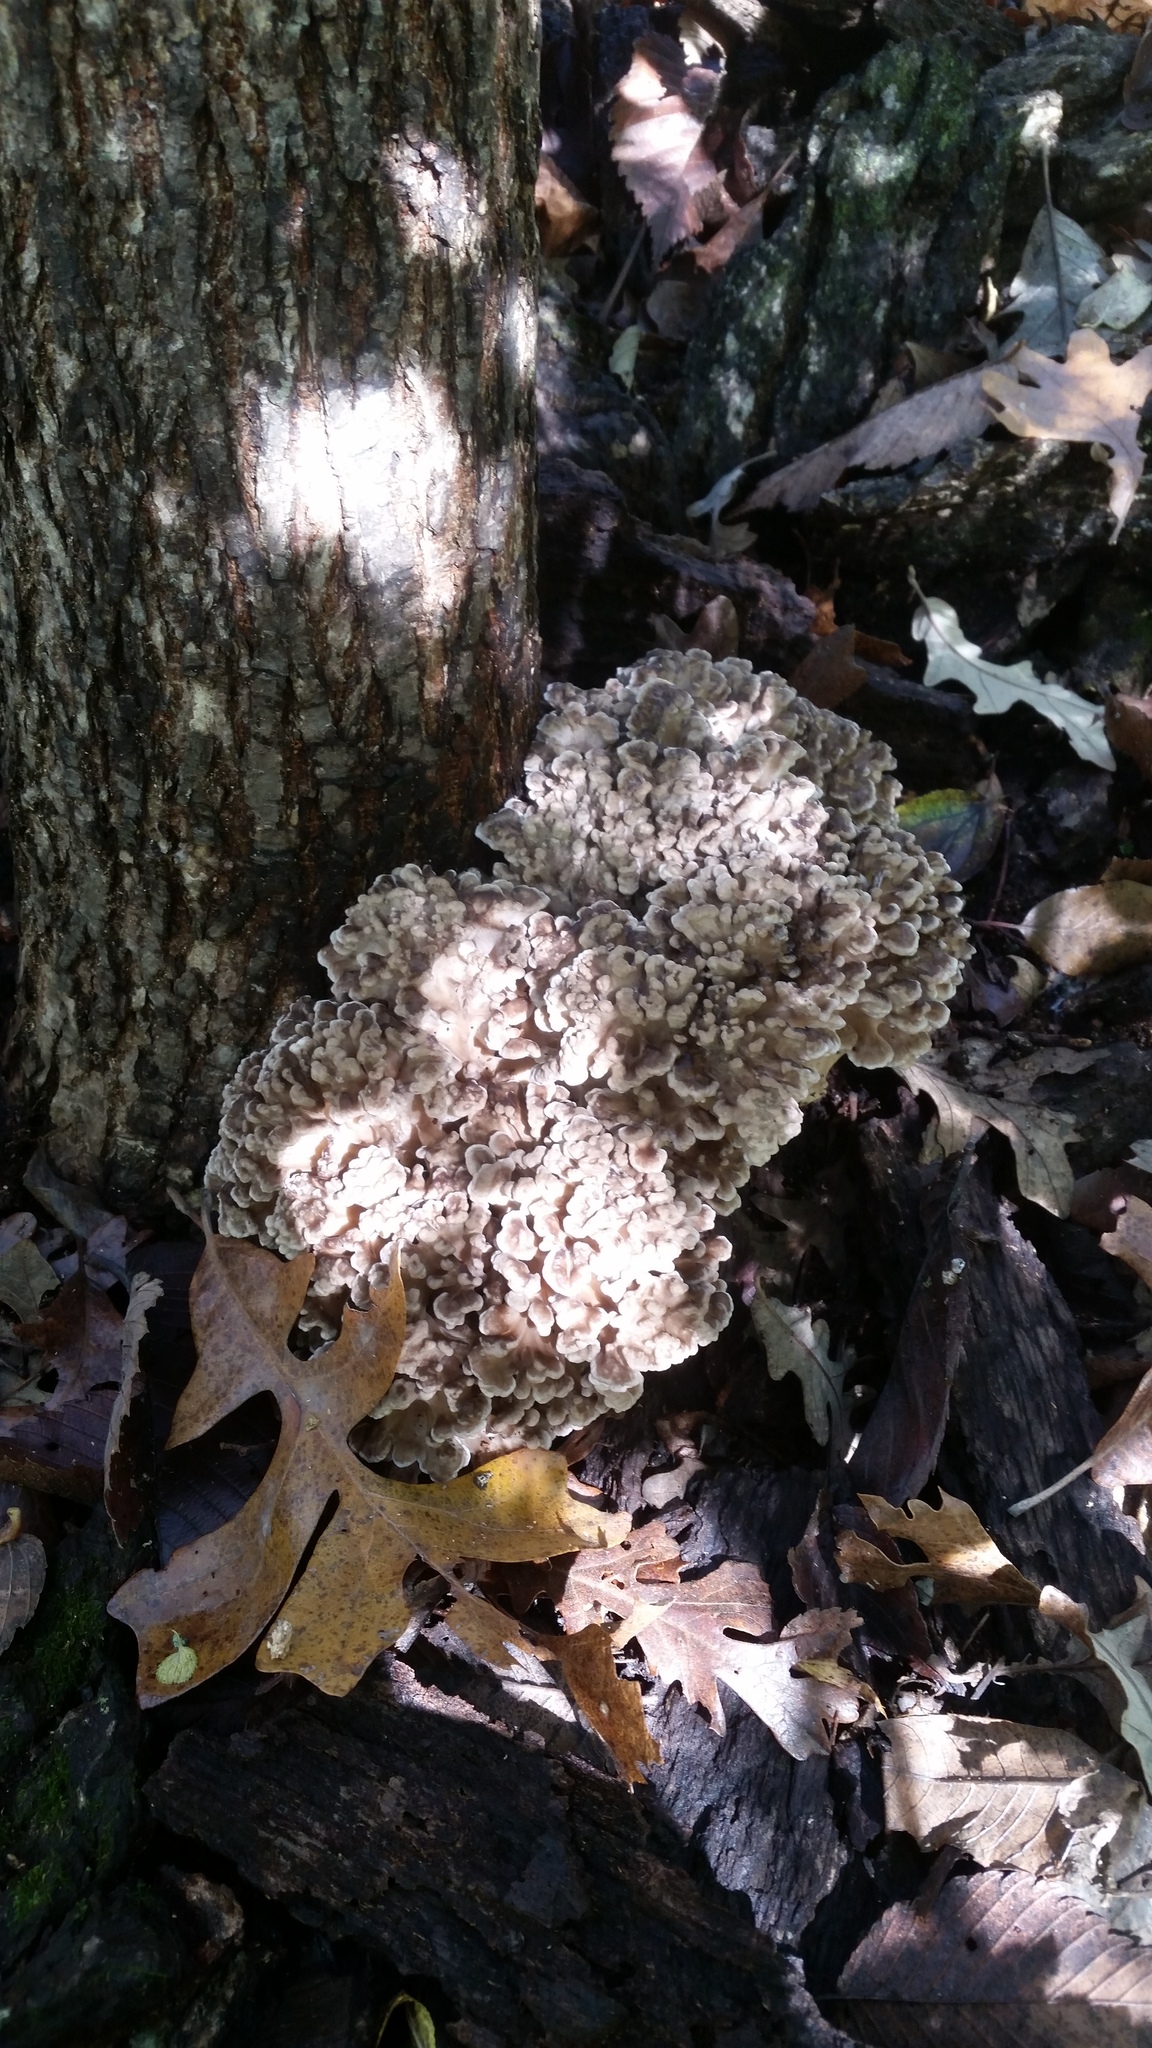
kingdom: Fungi
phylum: Basidiomycota
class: Agaricomycetes
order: Polyporales
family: Grifolaceae
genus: Grifola
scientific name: Grifola frondosa
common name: Hen of the woods
